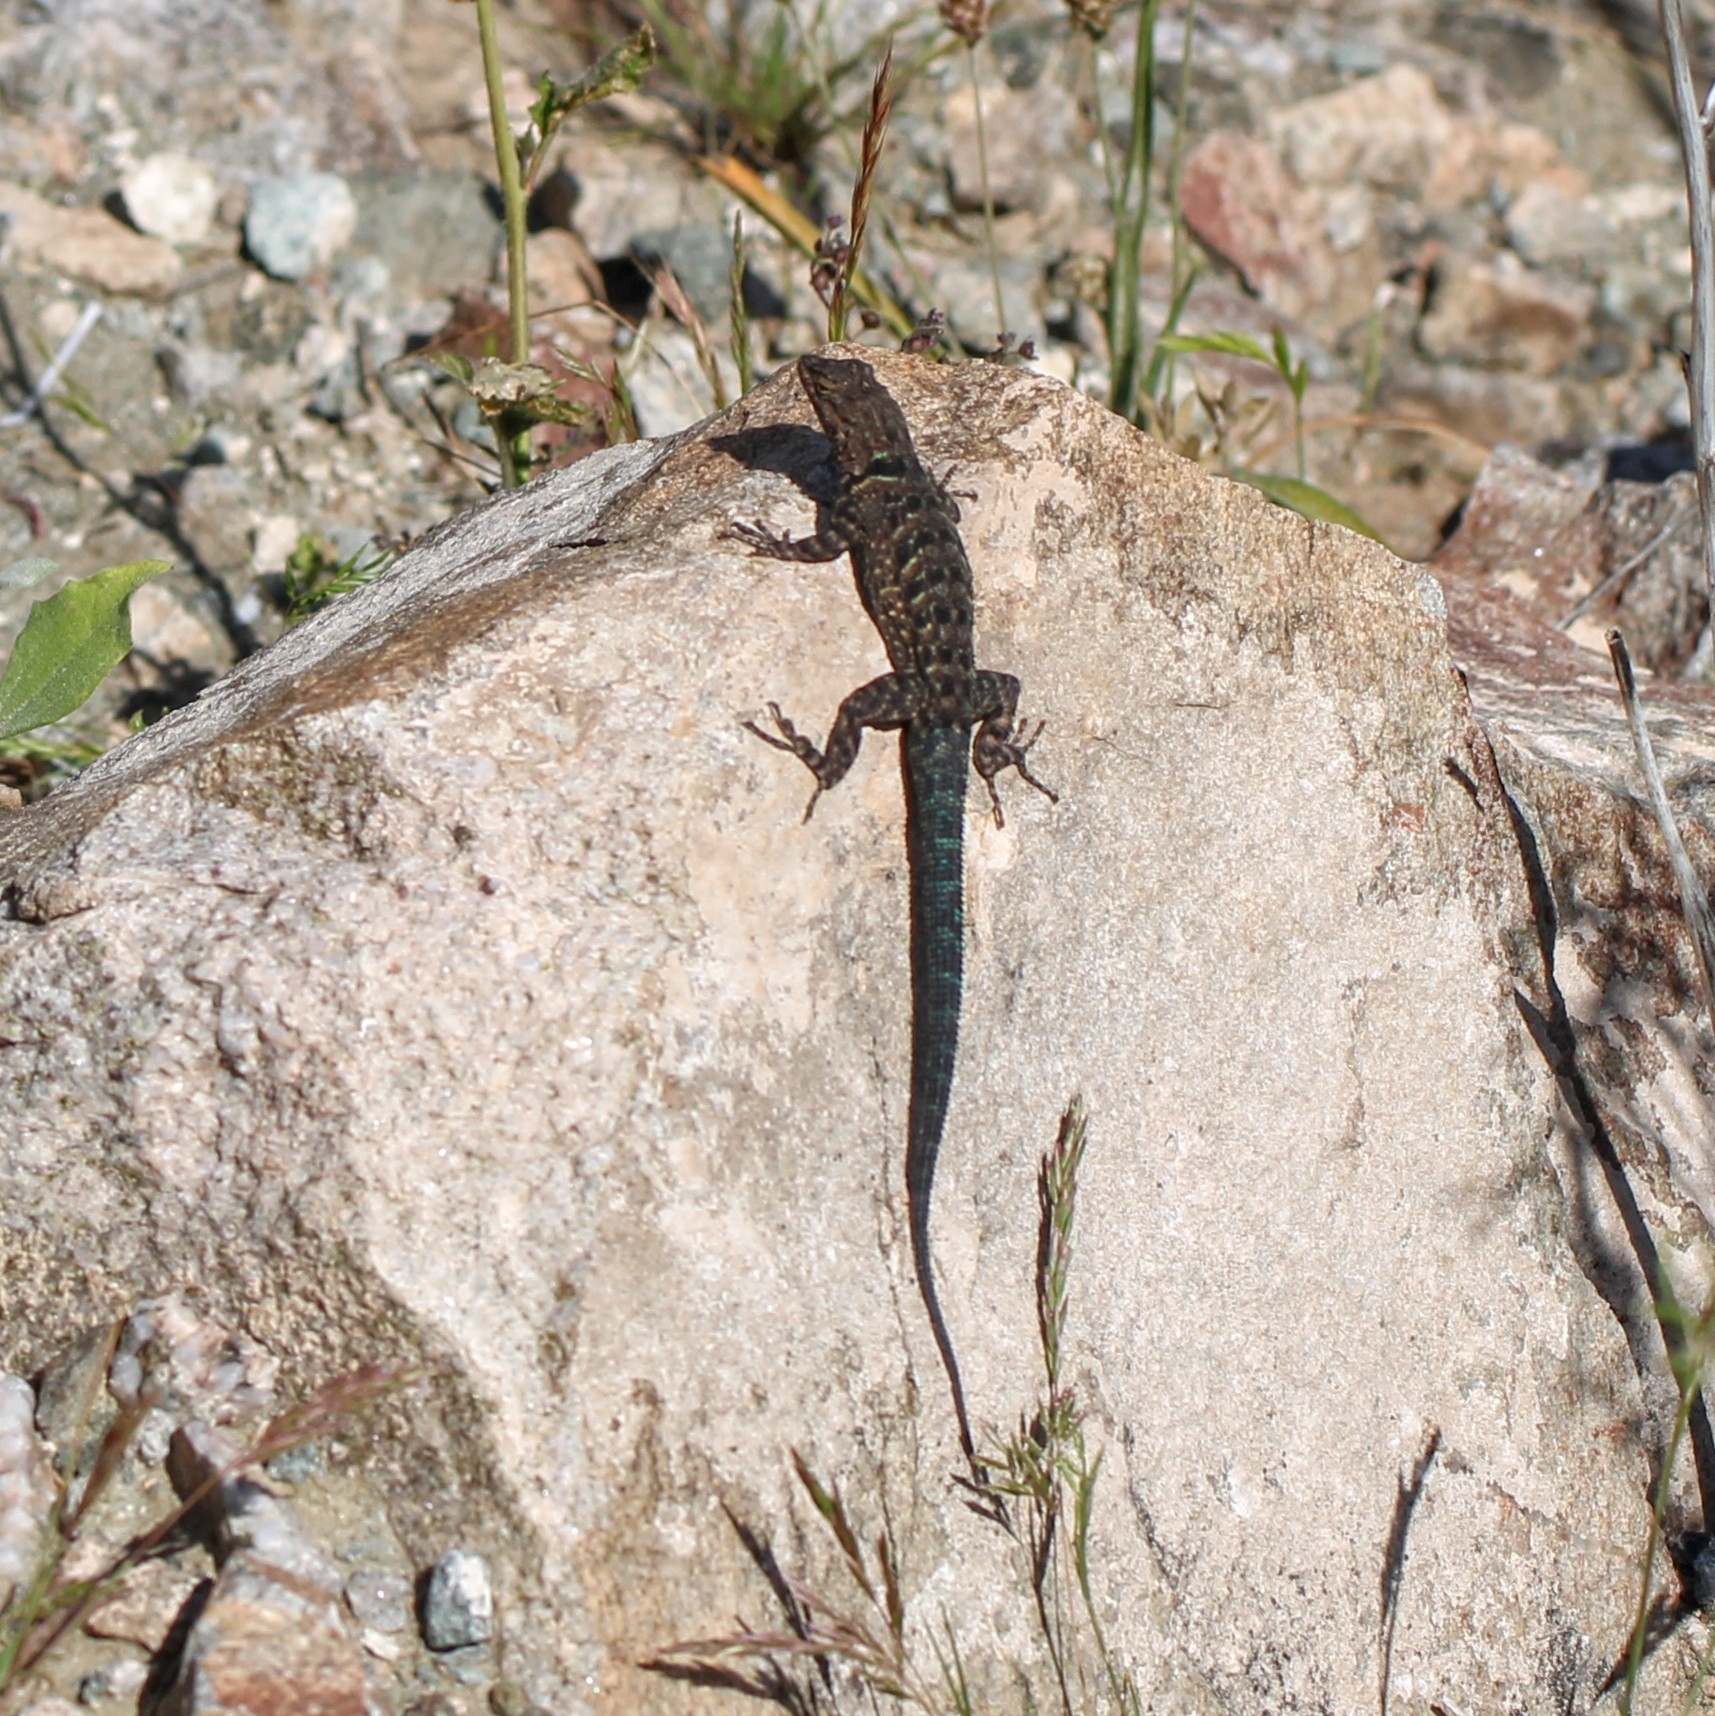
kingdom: Animalia
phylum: Chordata
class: Squamata
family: Phrynosomatidae
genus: Urosaurus
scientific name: Urosaurus ornatus
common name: Ornate tree lizard
